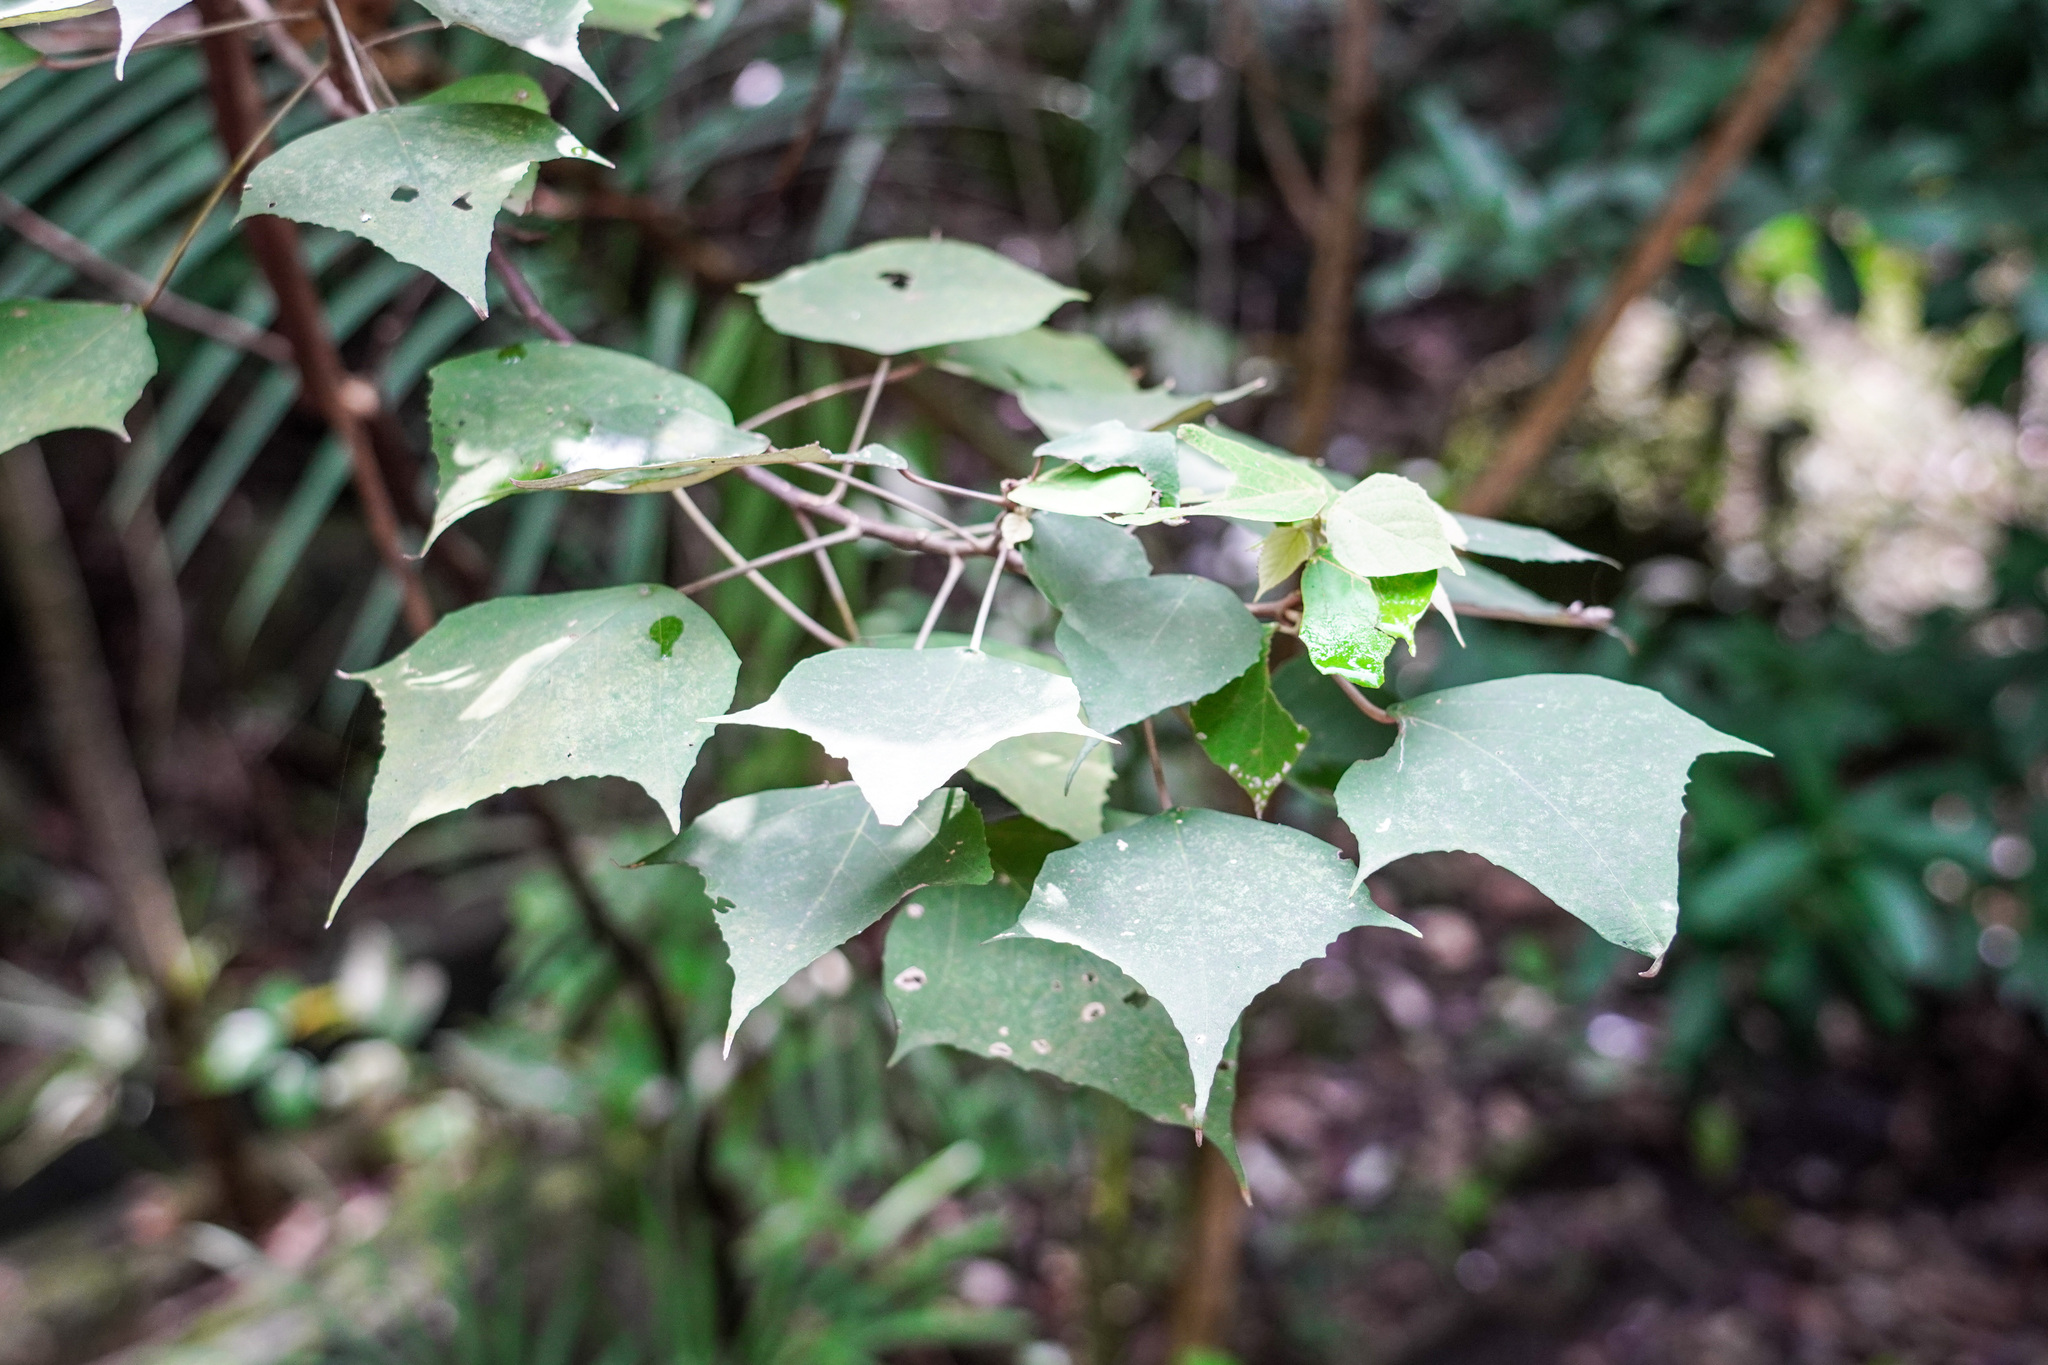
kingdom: Plantae
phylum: Tracheophyta
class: Magnoliopsida
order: Malpighiales
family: Euphorbiaceae
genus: Mallotus
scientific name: Mallotus paniculatus
